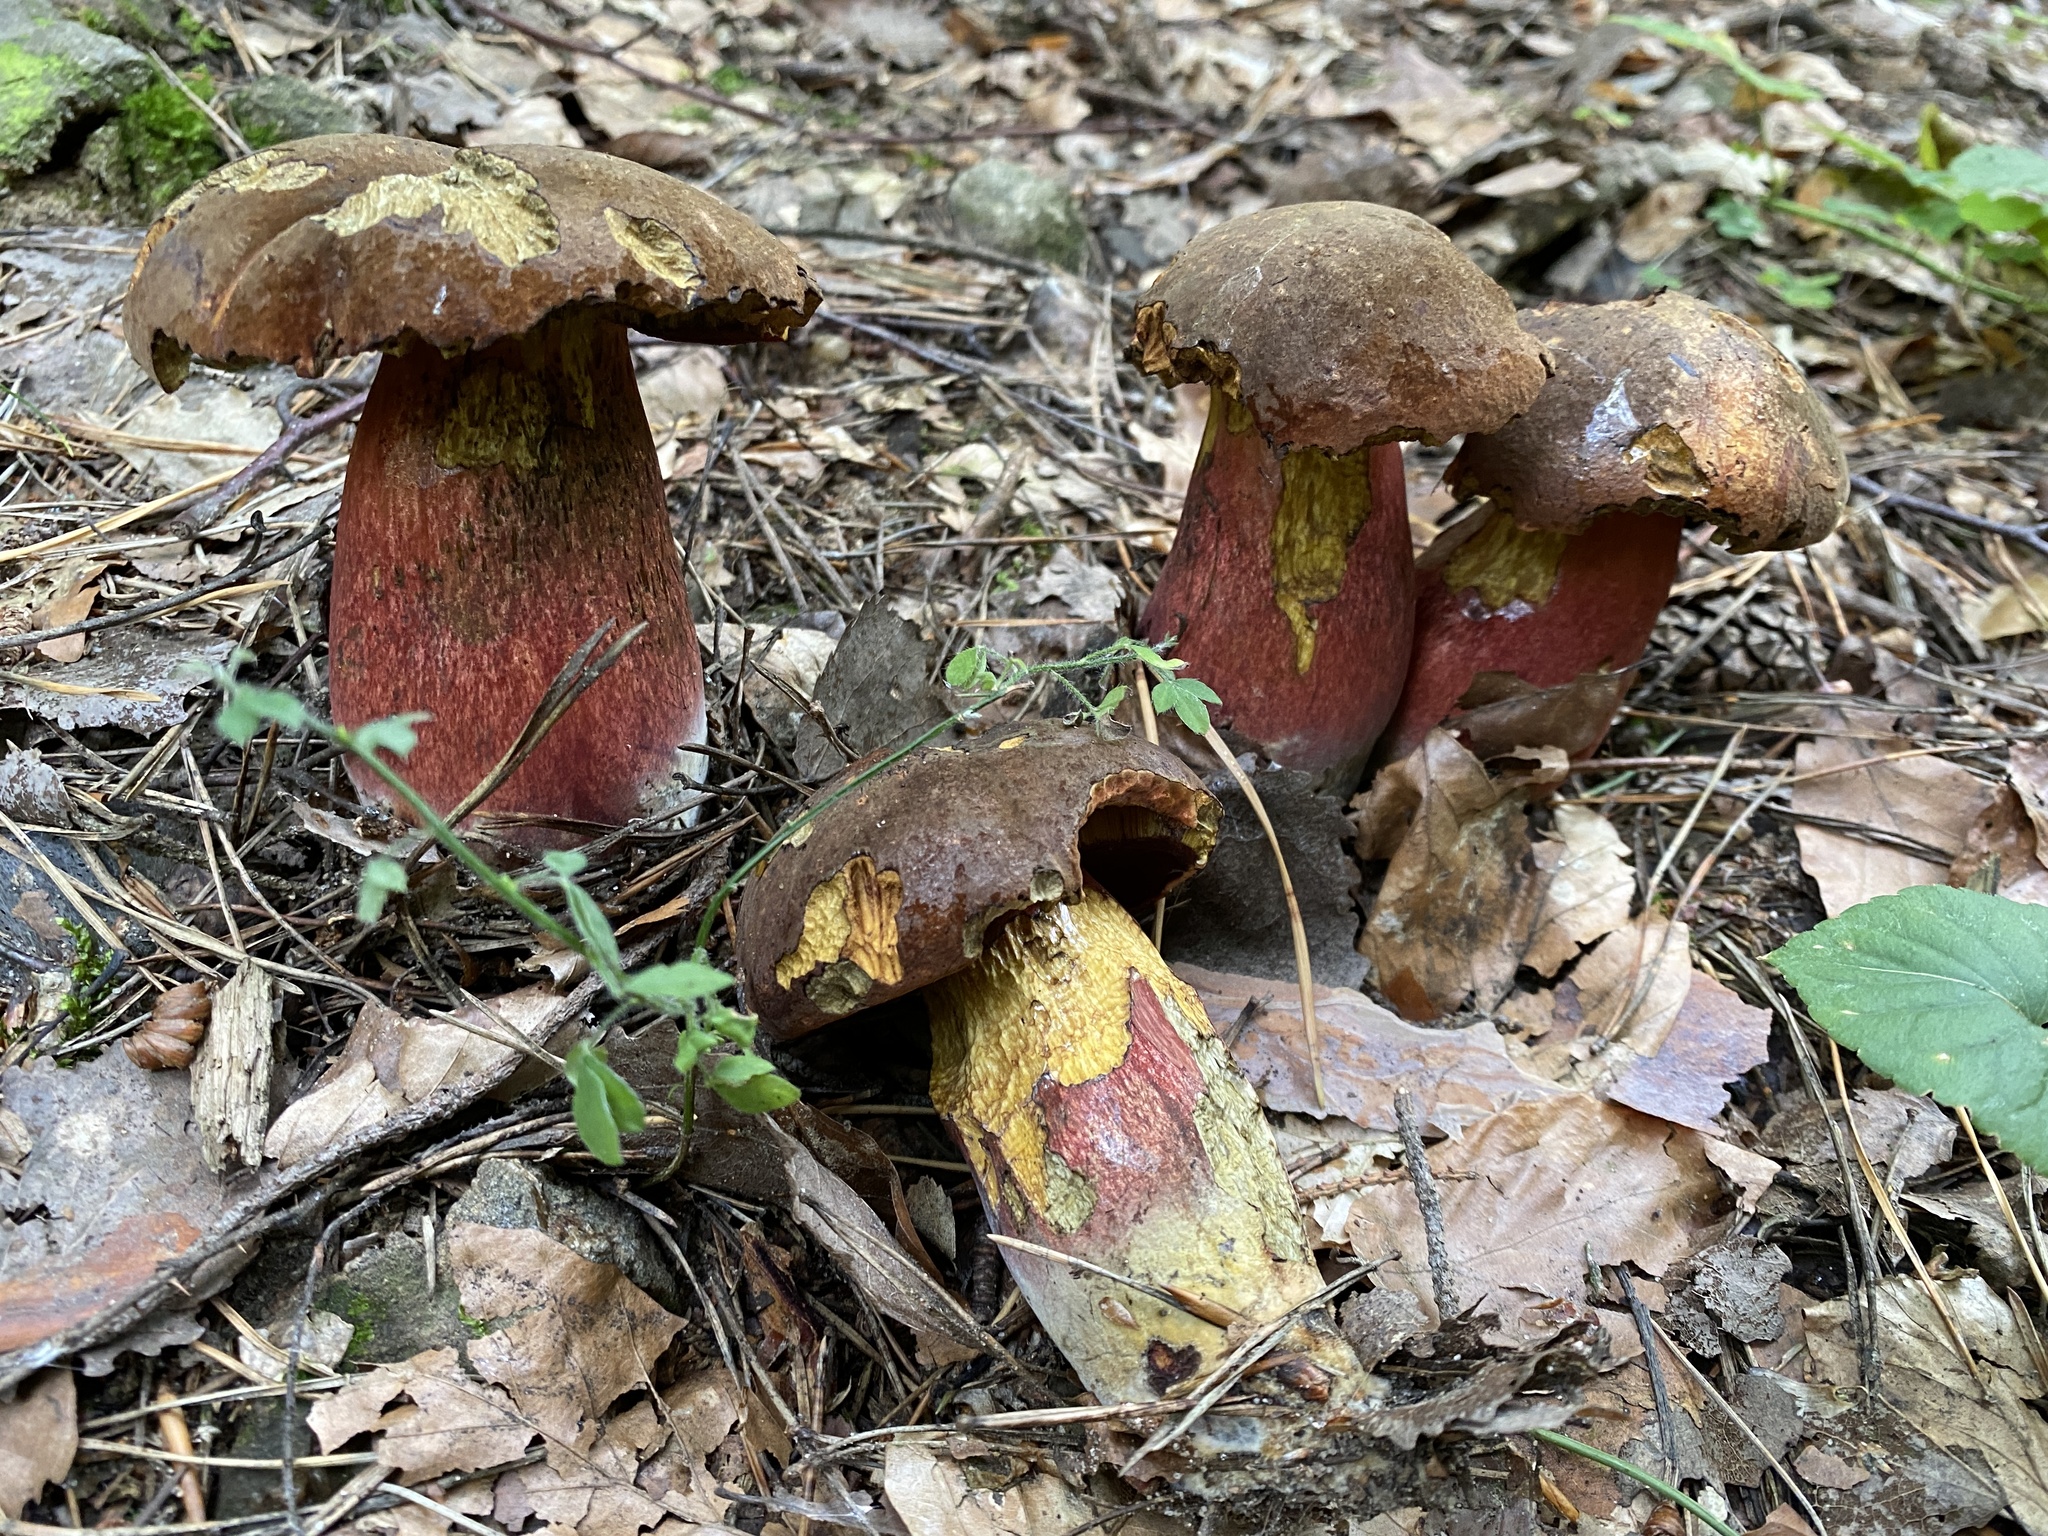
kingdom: Fungi
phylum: Basidiomycota
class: Agaricomycetes
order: Boletales
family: Boletaceae
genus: Neoboletus
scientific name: Neoboletus luridiformis
